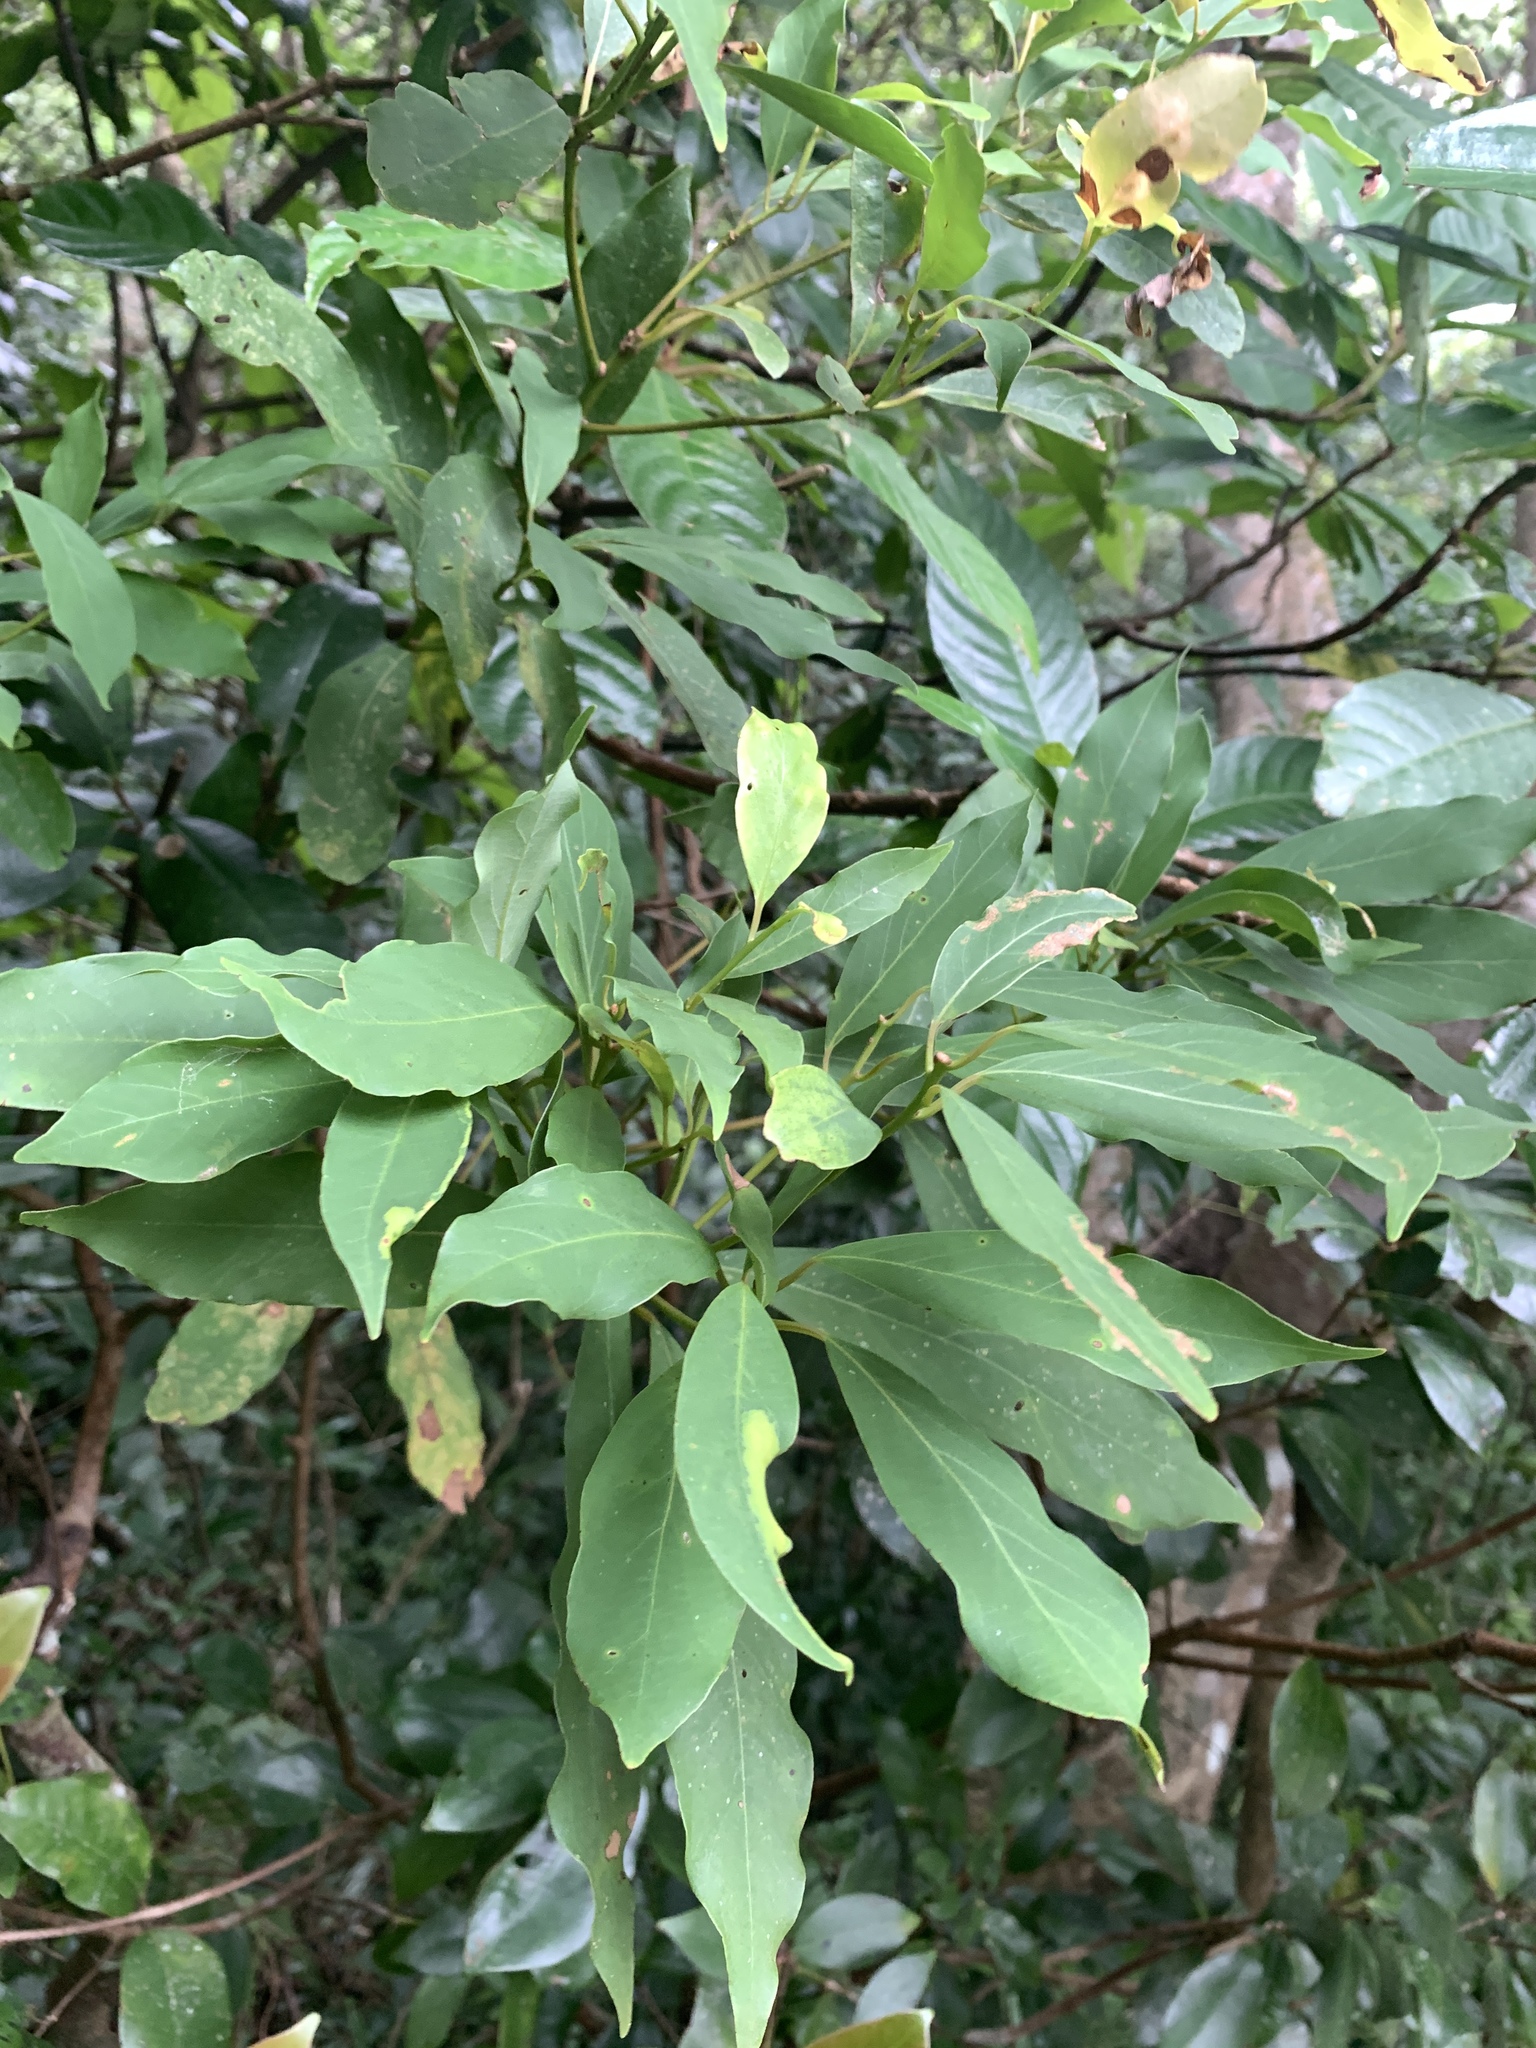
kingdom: Plantae
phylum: Tracheophyta
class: Magnoliopsida
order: Laurales
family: Lauraceae
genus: Machilus
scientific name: Machilus zuihoensis
